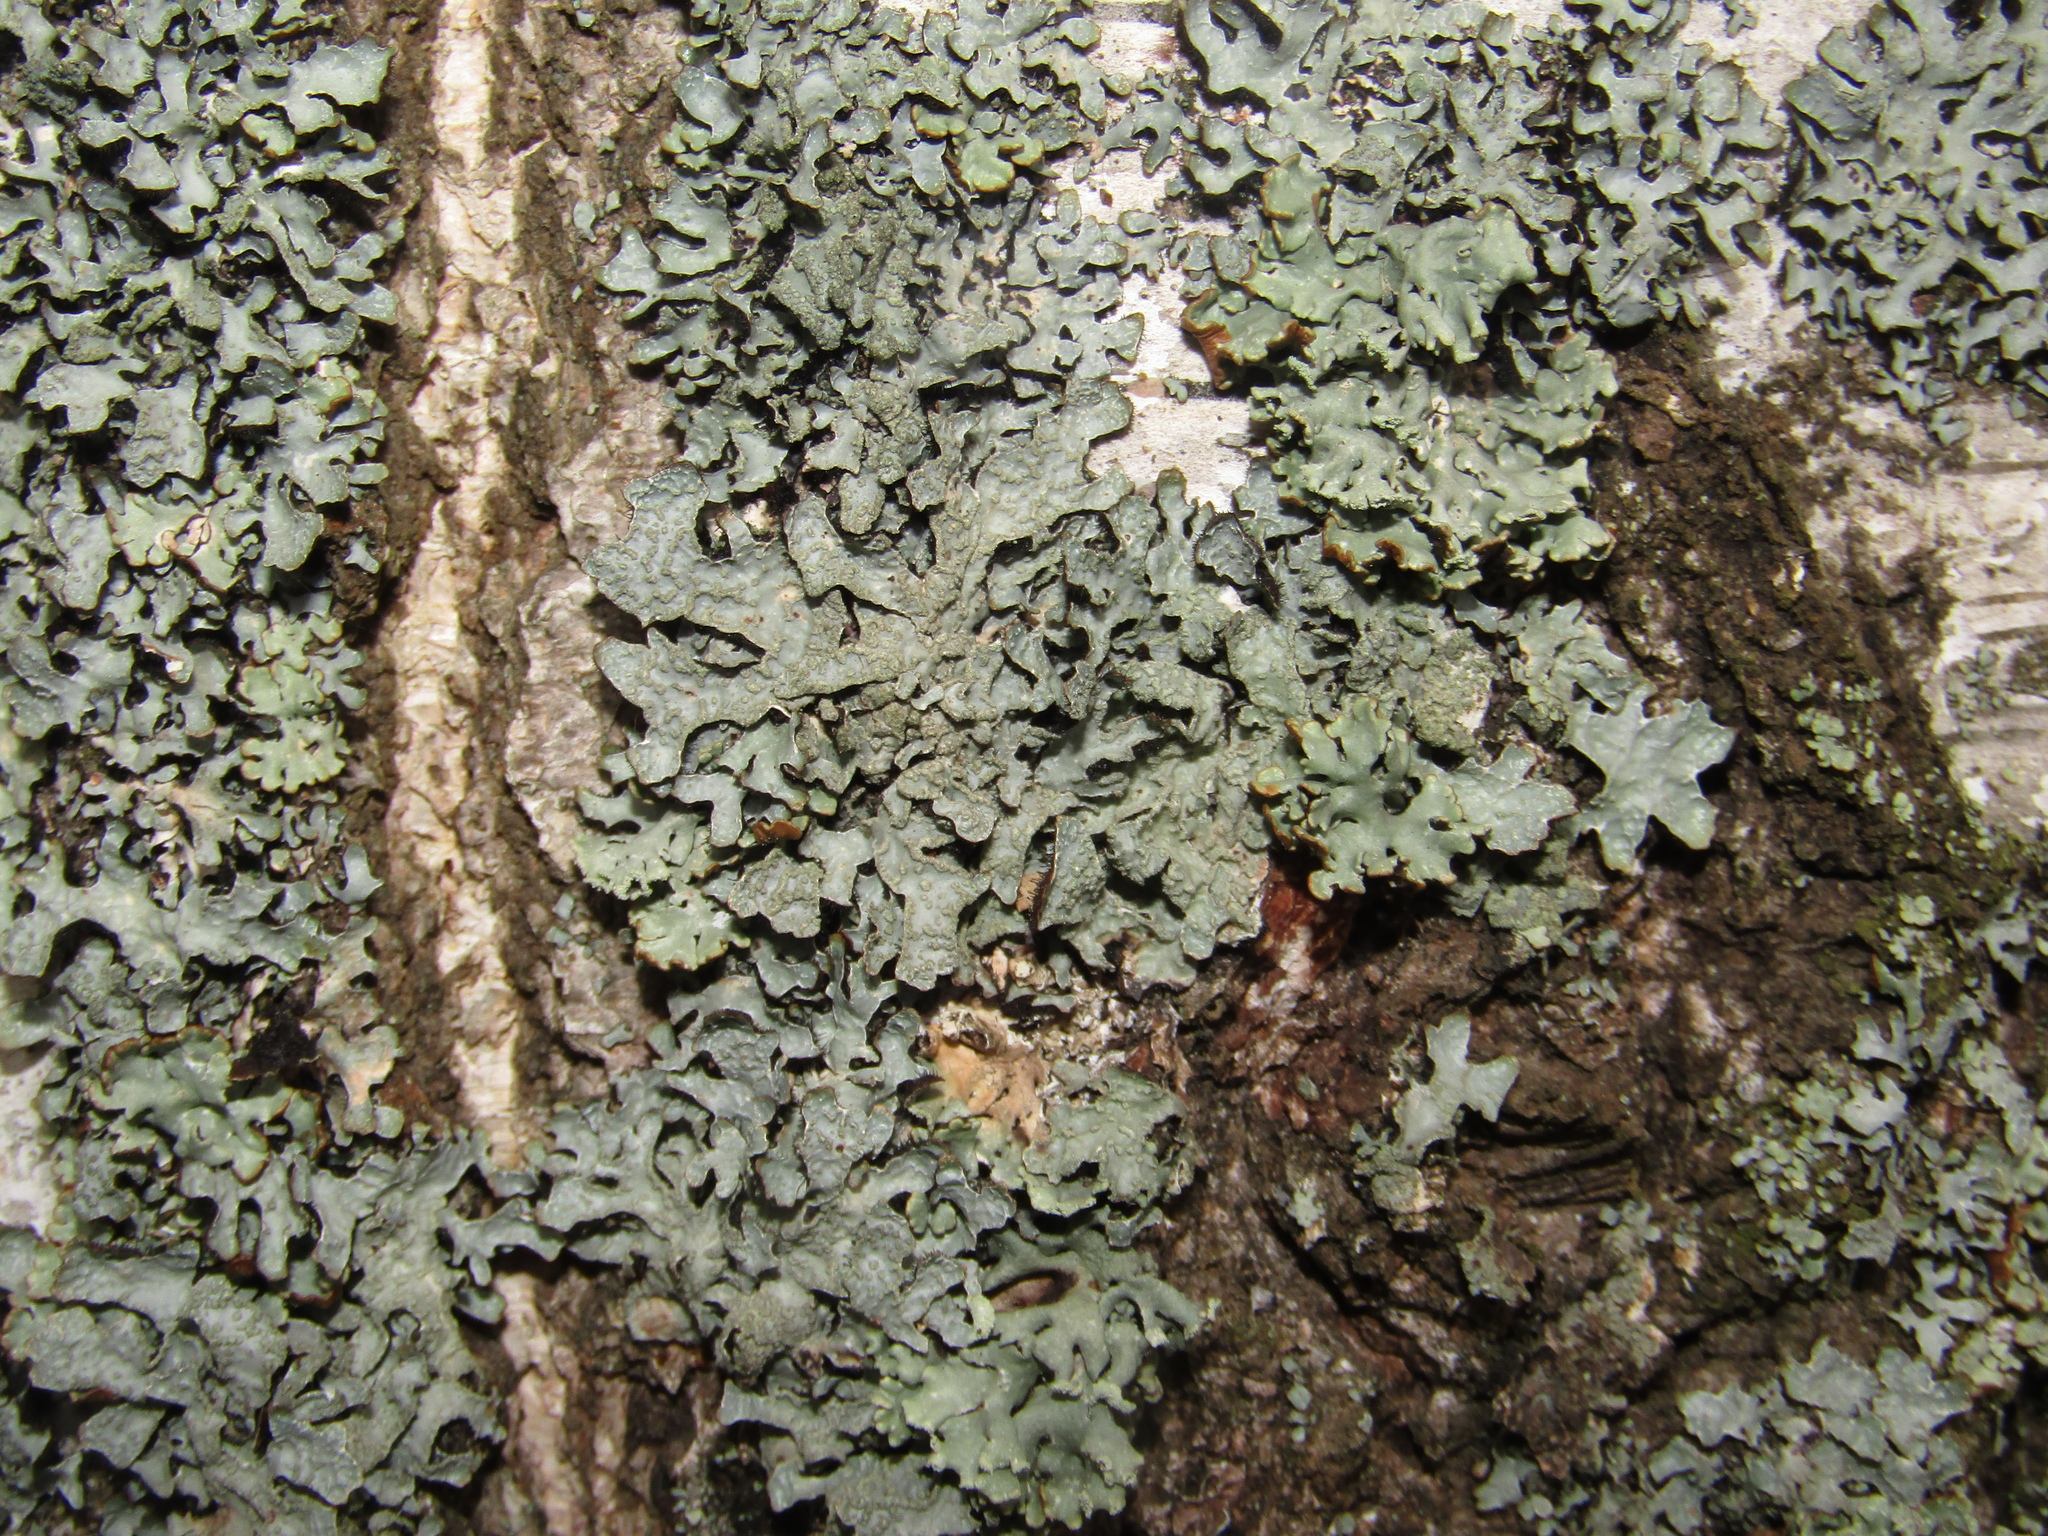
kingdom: Fungi
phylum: Ascomycota
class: Lecanoromycetes
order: Lecanorales
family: Parmeliaceae
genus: Parmelia
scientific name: Parmelia sulcata
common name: Netted shield lichen
